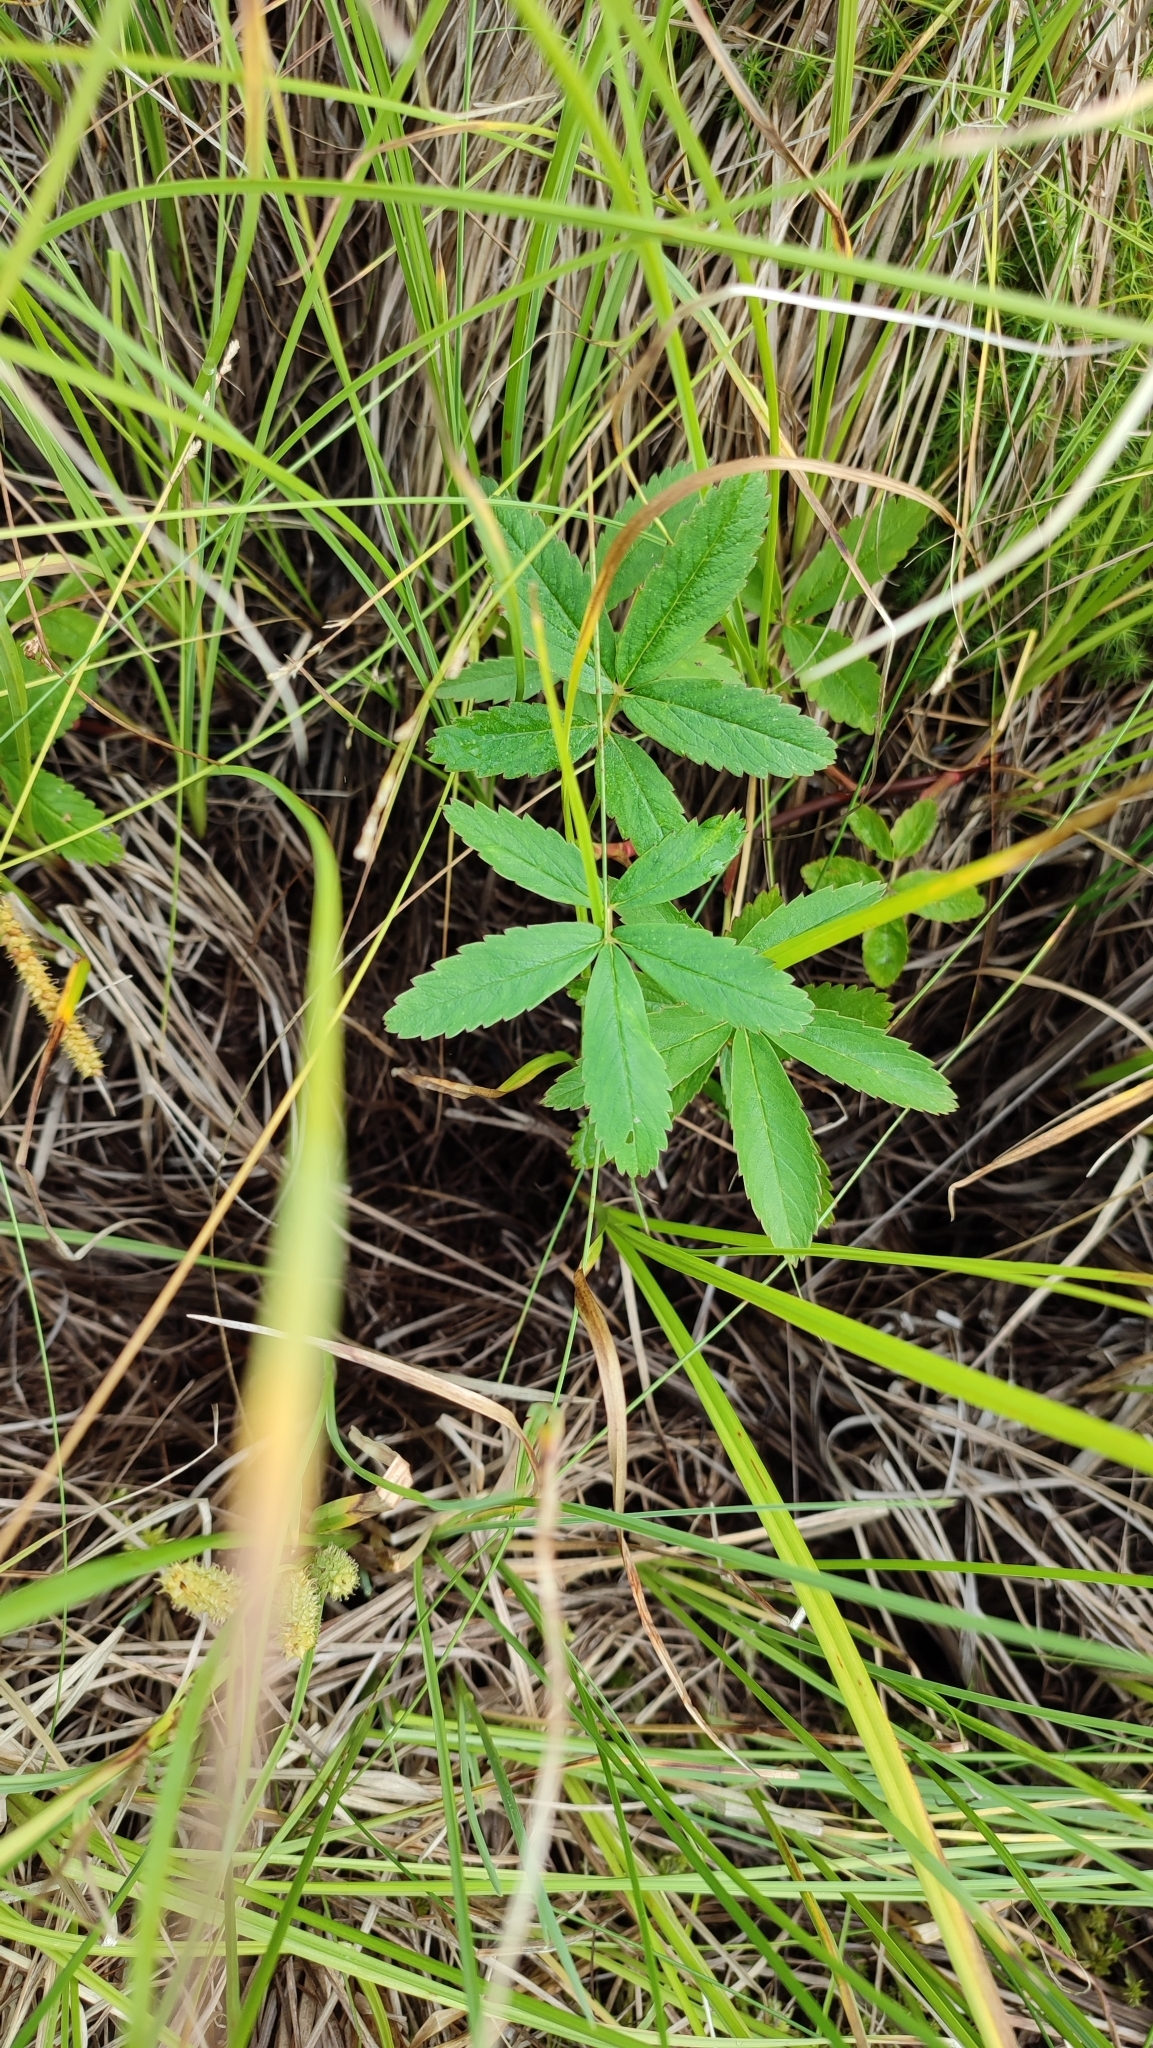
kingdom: Plantae
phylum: Tracheophyta
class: Magnoliopsida
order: Rosales
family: Rosaceae
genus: Comarum
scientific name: Comarum palustre
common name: Marsh cinquefoil
